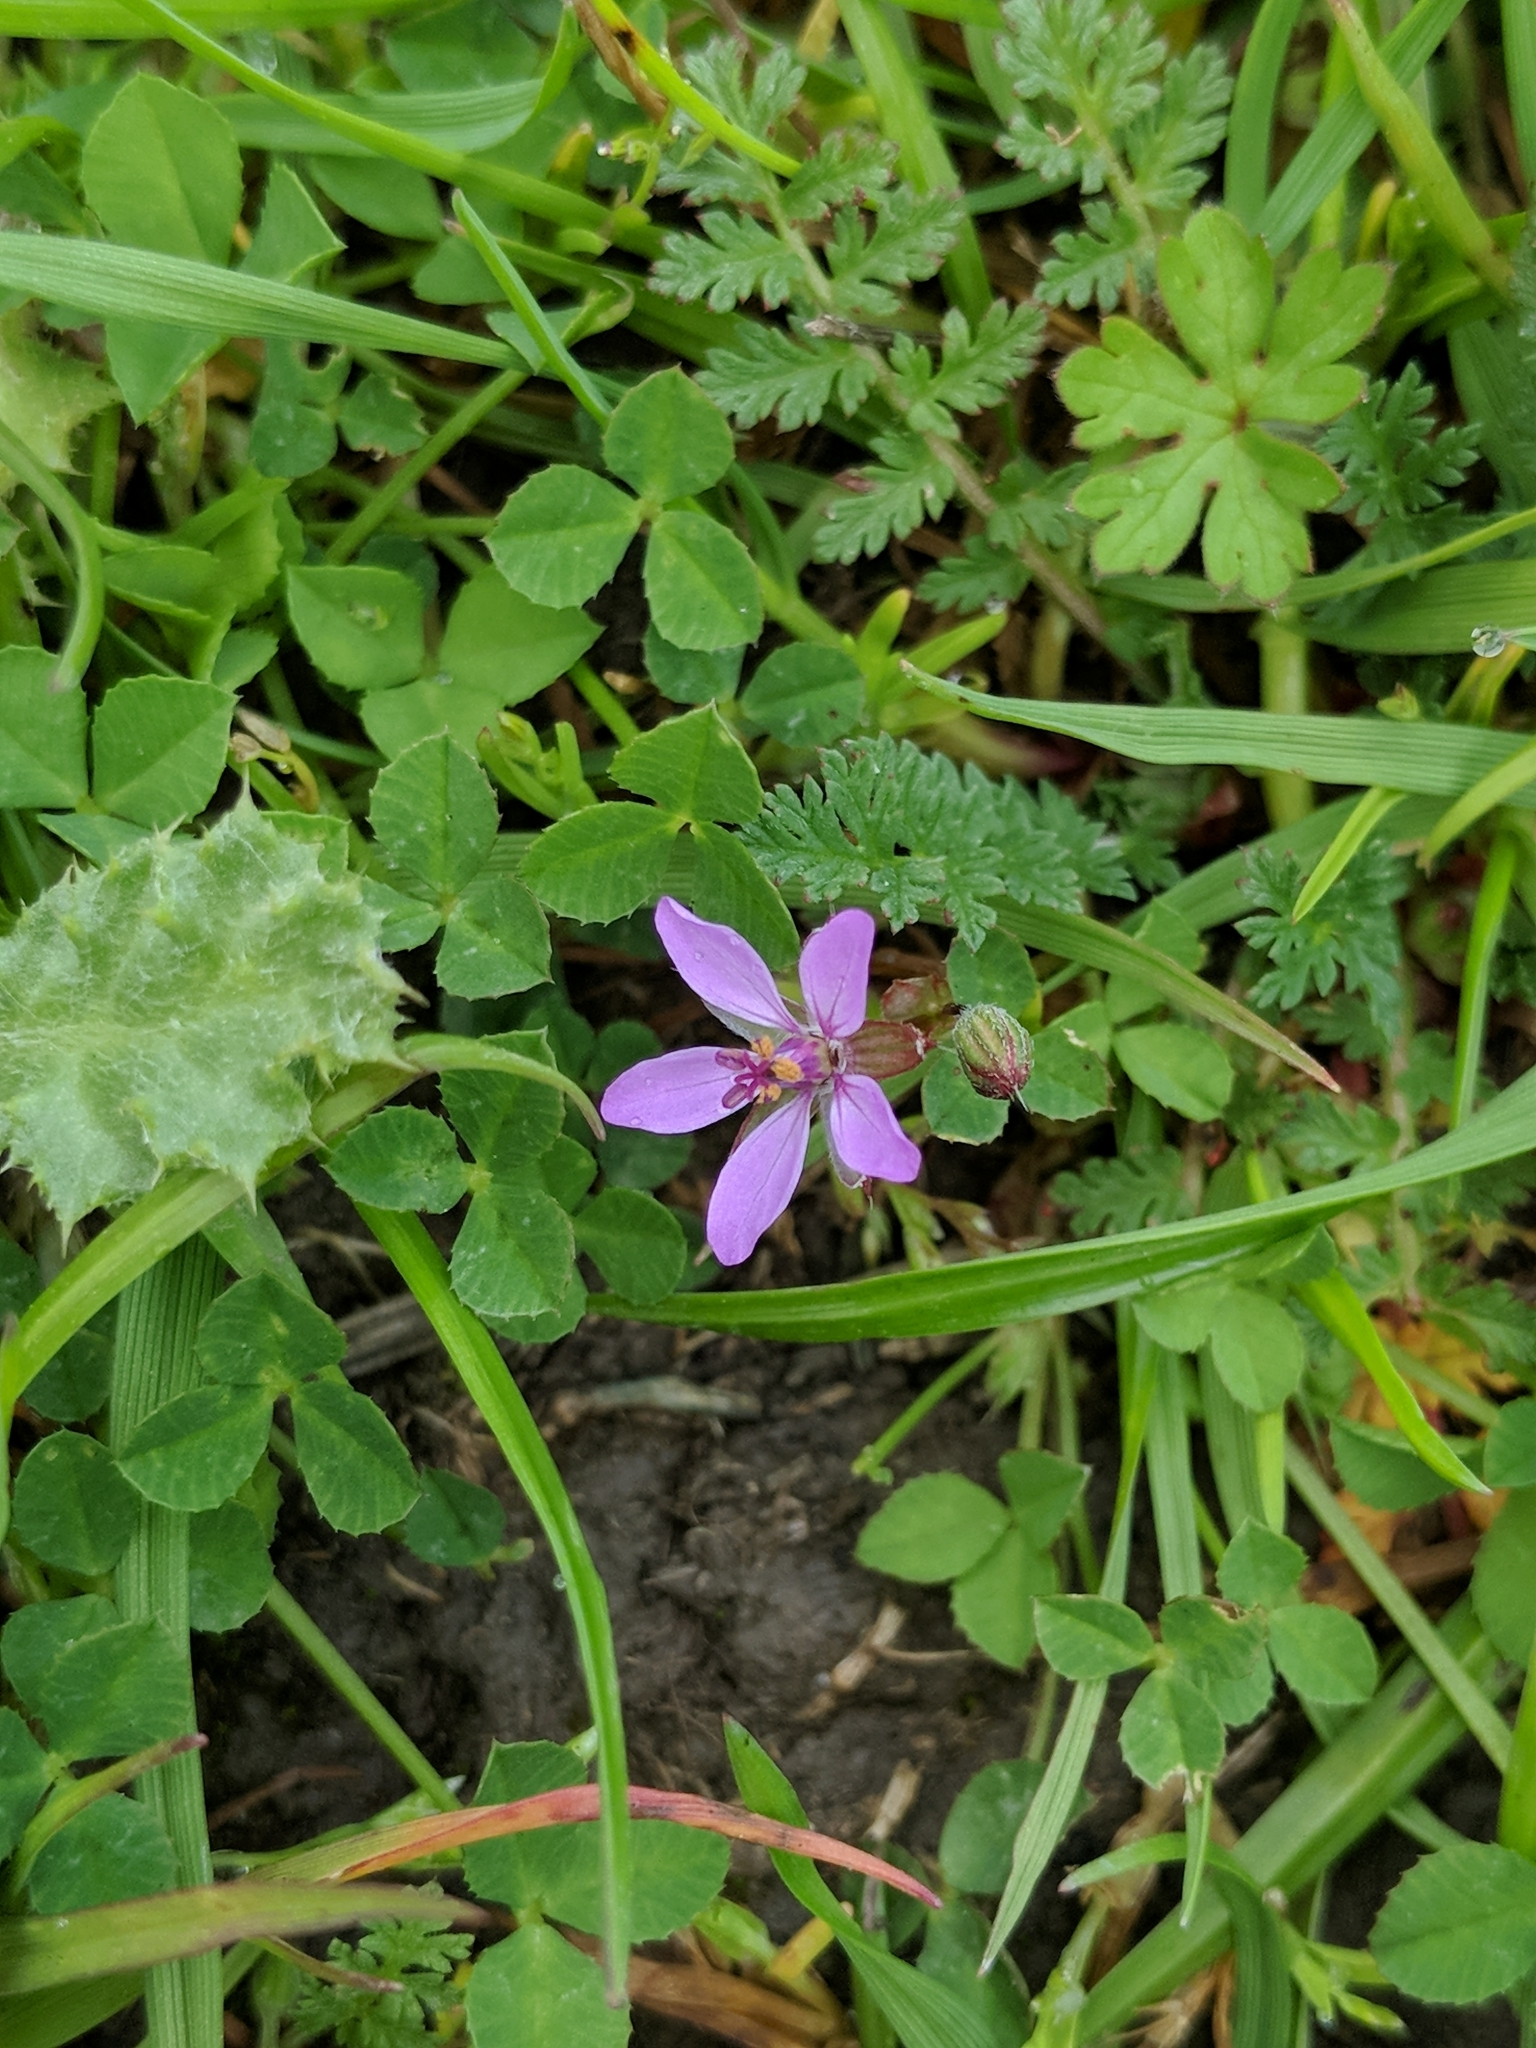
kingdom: Plantae
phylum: Tracheophyta
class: Magnoliopsida
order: Geraniales
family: Geraniaceae
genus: Erodium
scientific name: Erodium cicutarium
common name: Common stork's-bill
